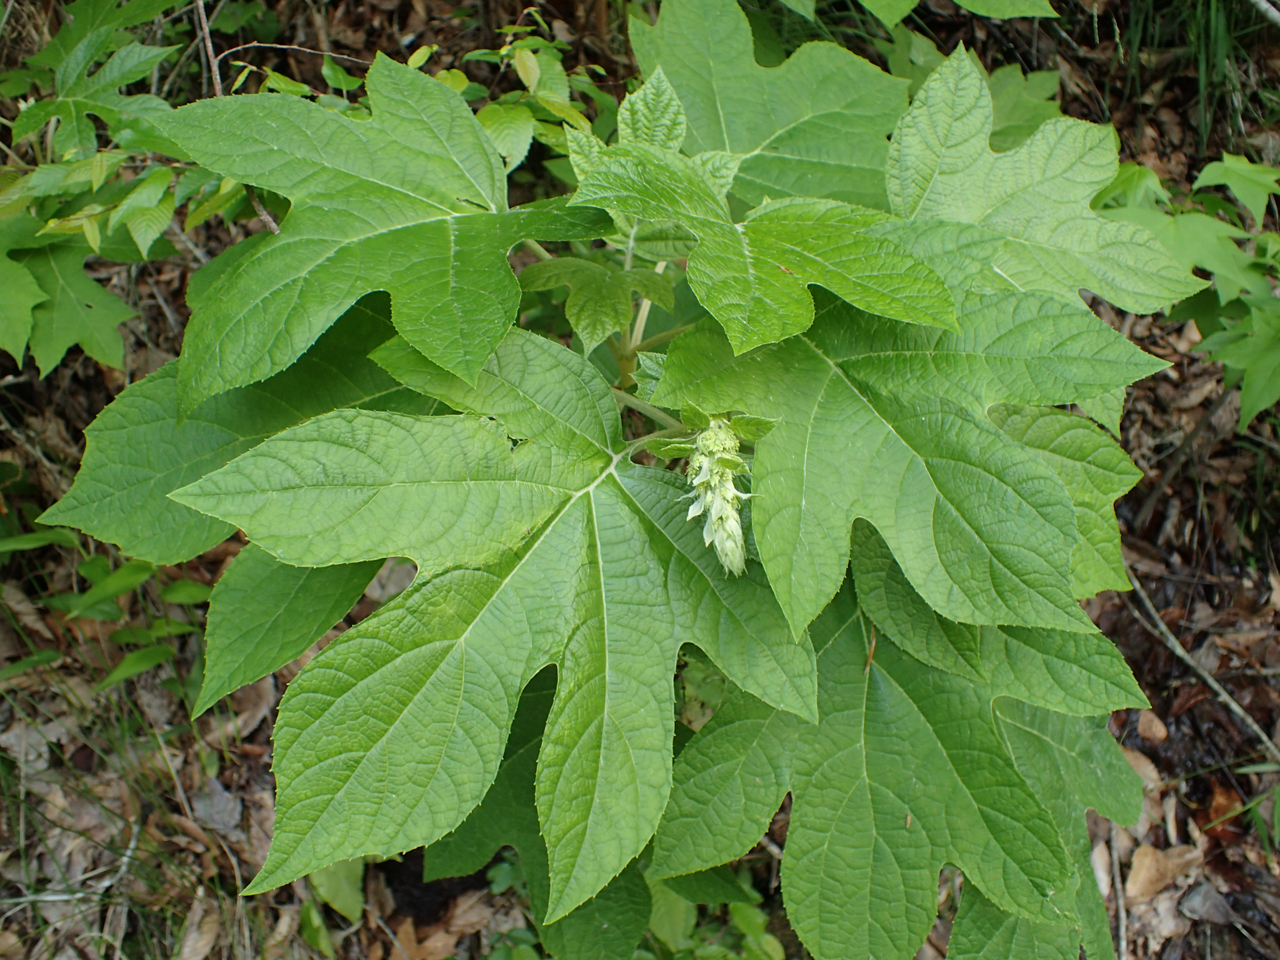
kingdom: Plantae
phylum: Tracheophyta
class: Magnoliopsida
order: Cornales
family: Hydrangeaceae
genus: Hydrangea
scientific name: Hydrangea quercifolia
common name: Oak-leaf hydrangea
